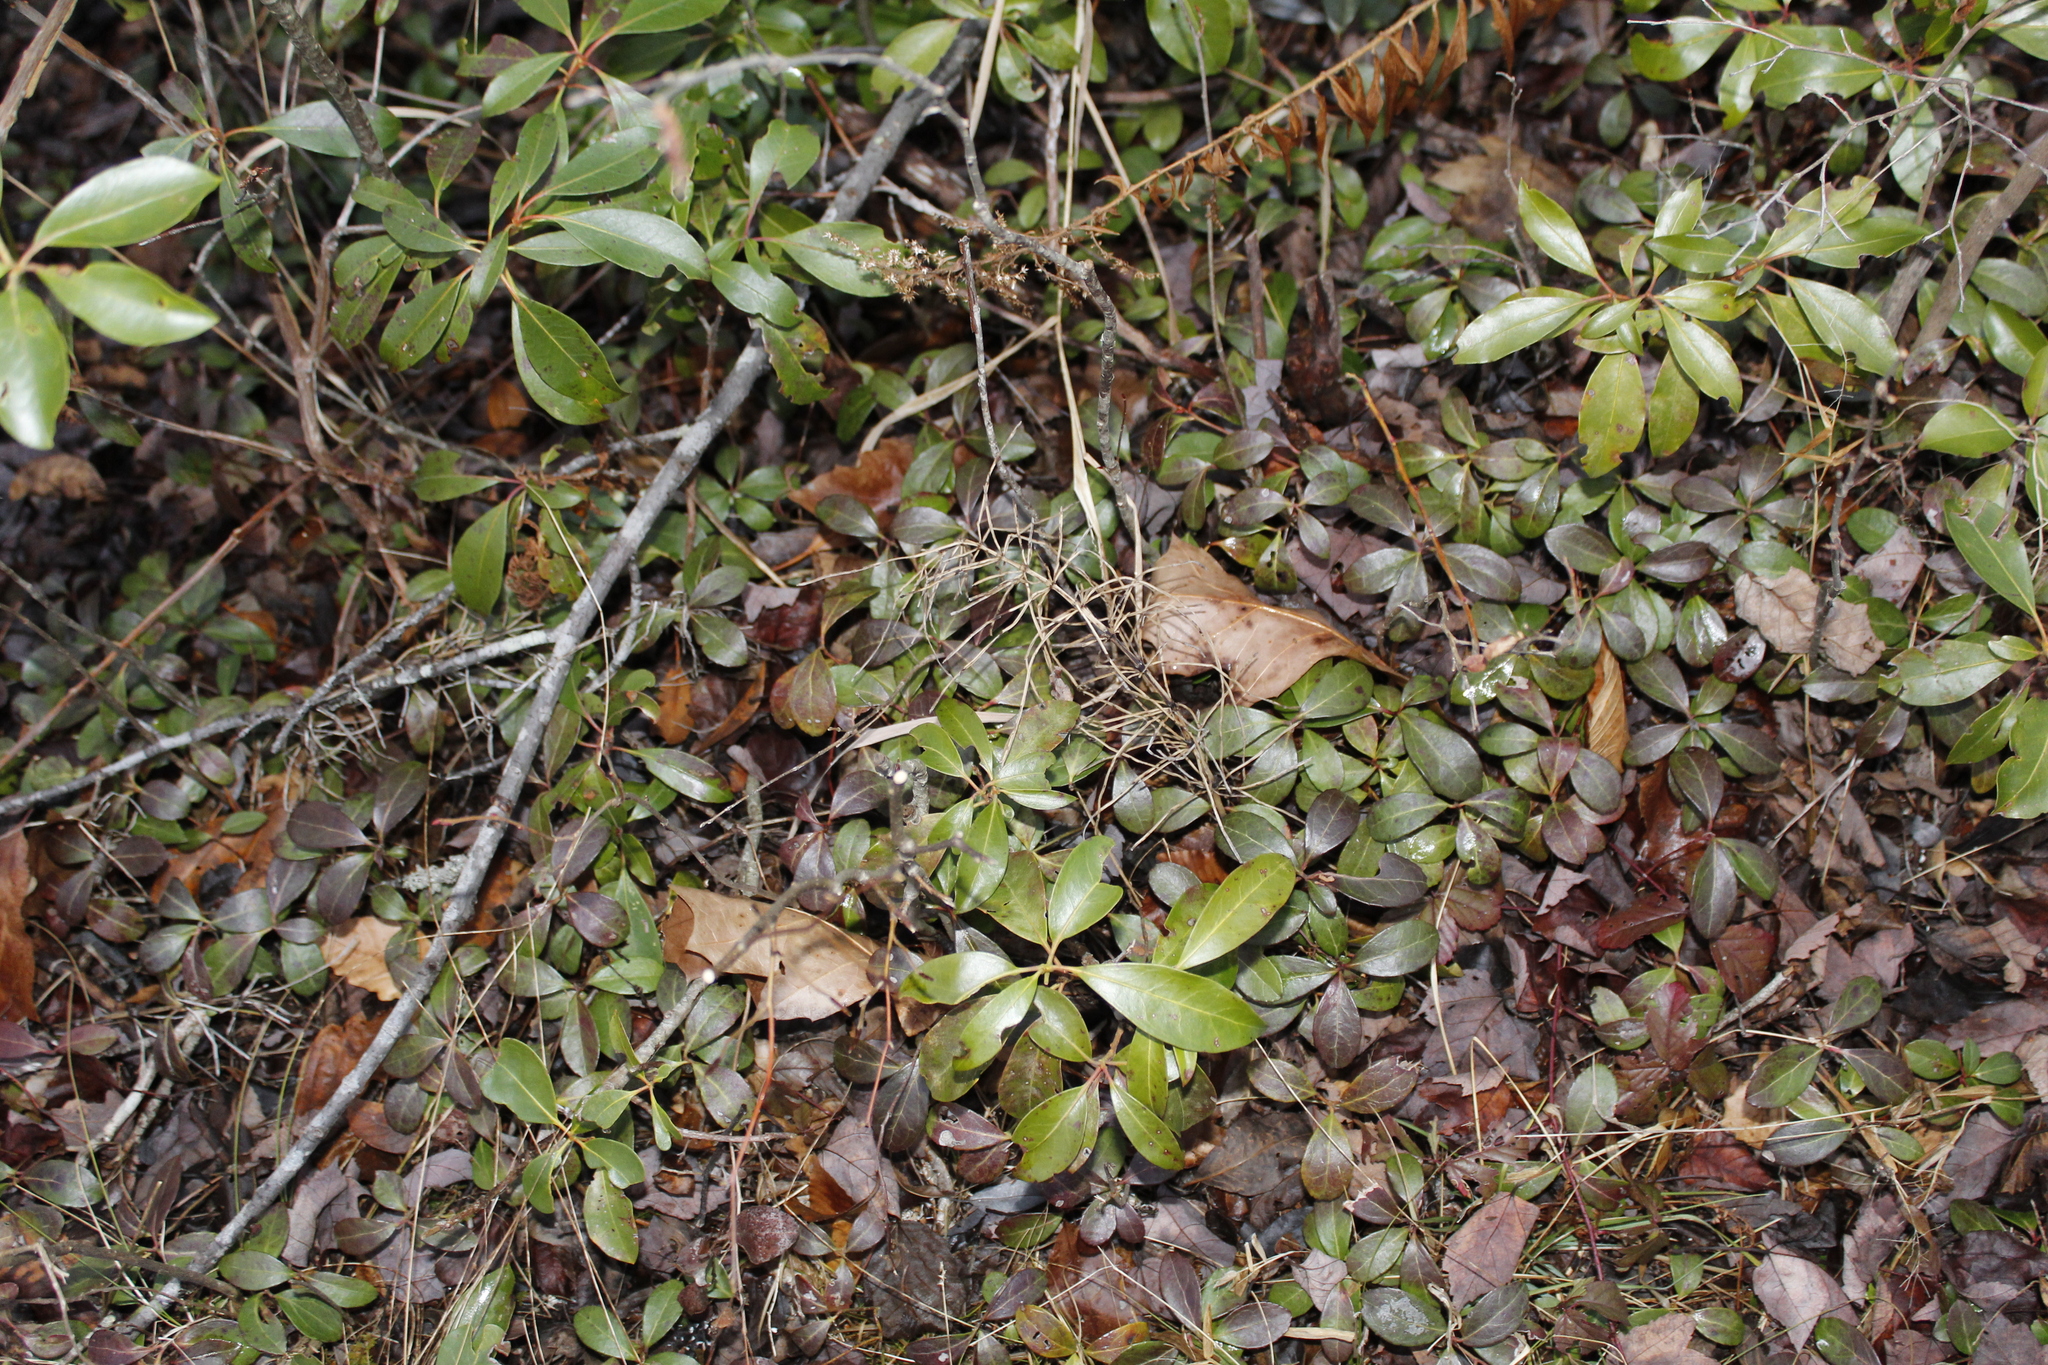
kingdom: Plantae
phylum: Tracheophyta
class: Magnoliopsida
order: Ericales
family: Ericaceae
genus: Gaultheria
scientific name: Gaultheria procumbens
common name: Checkerberry
